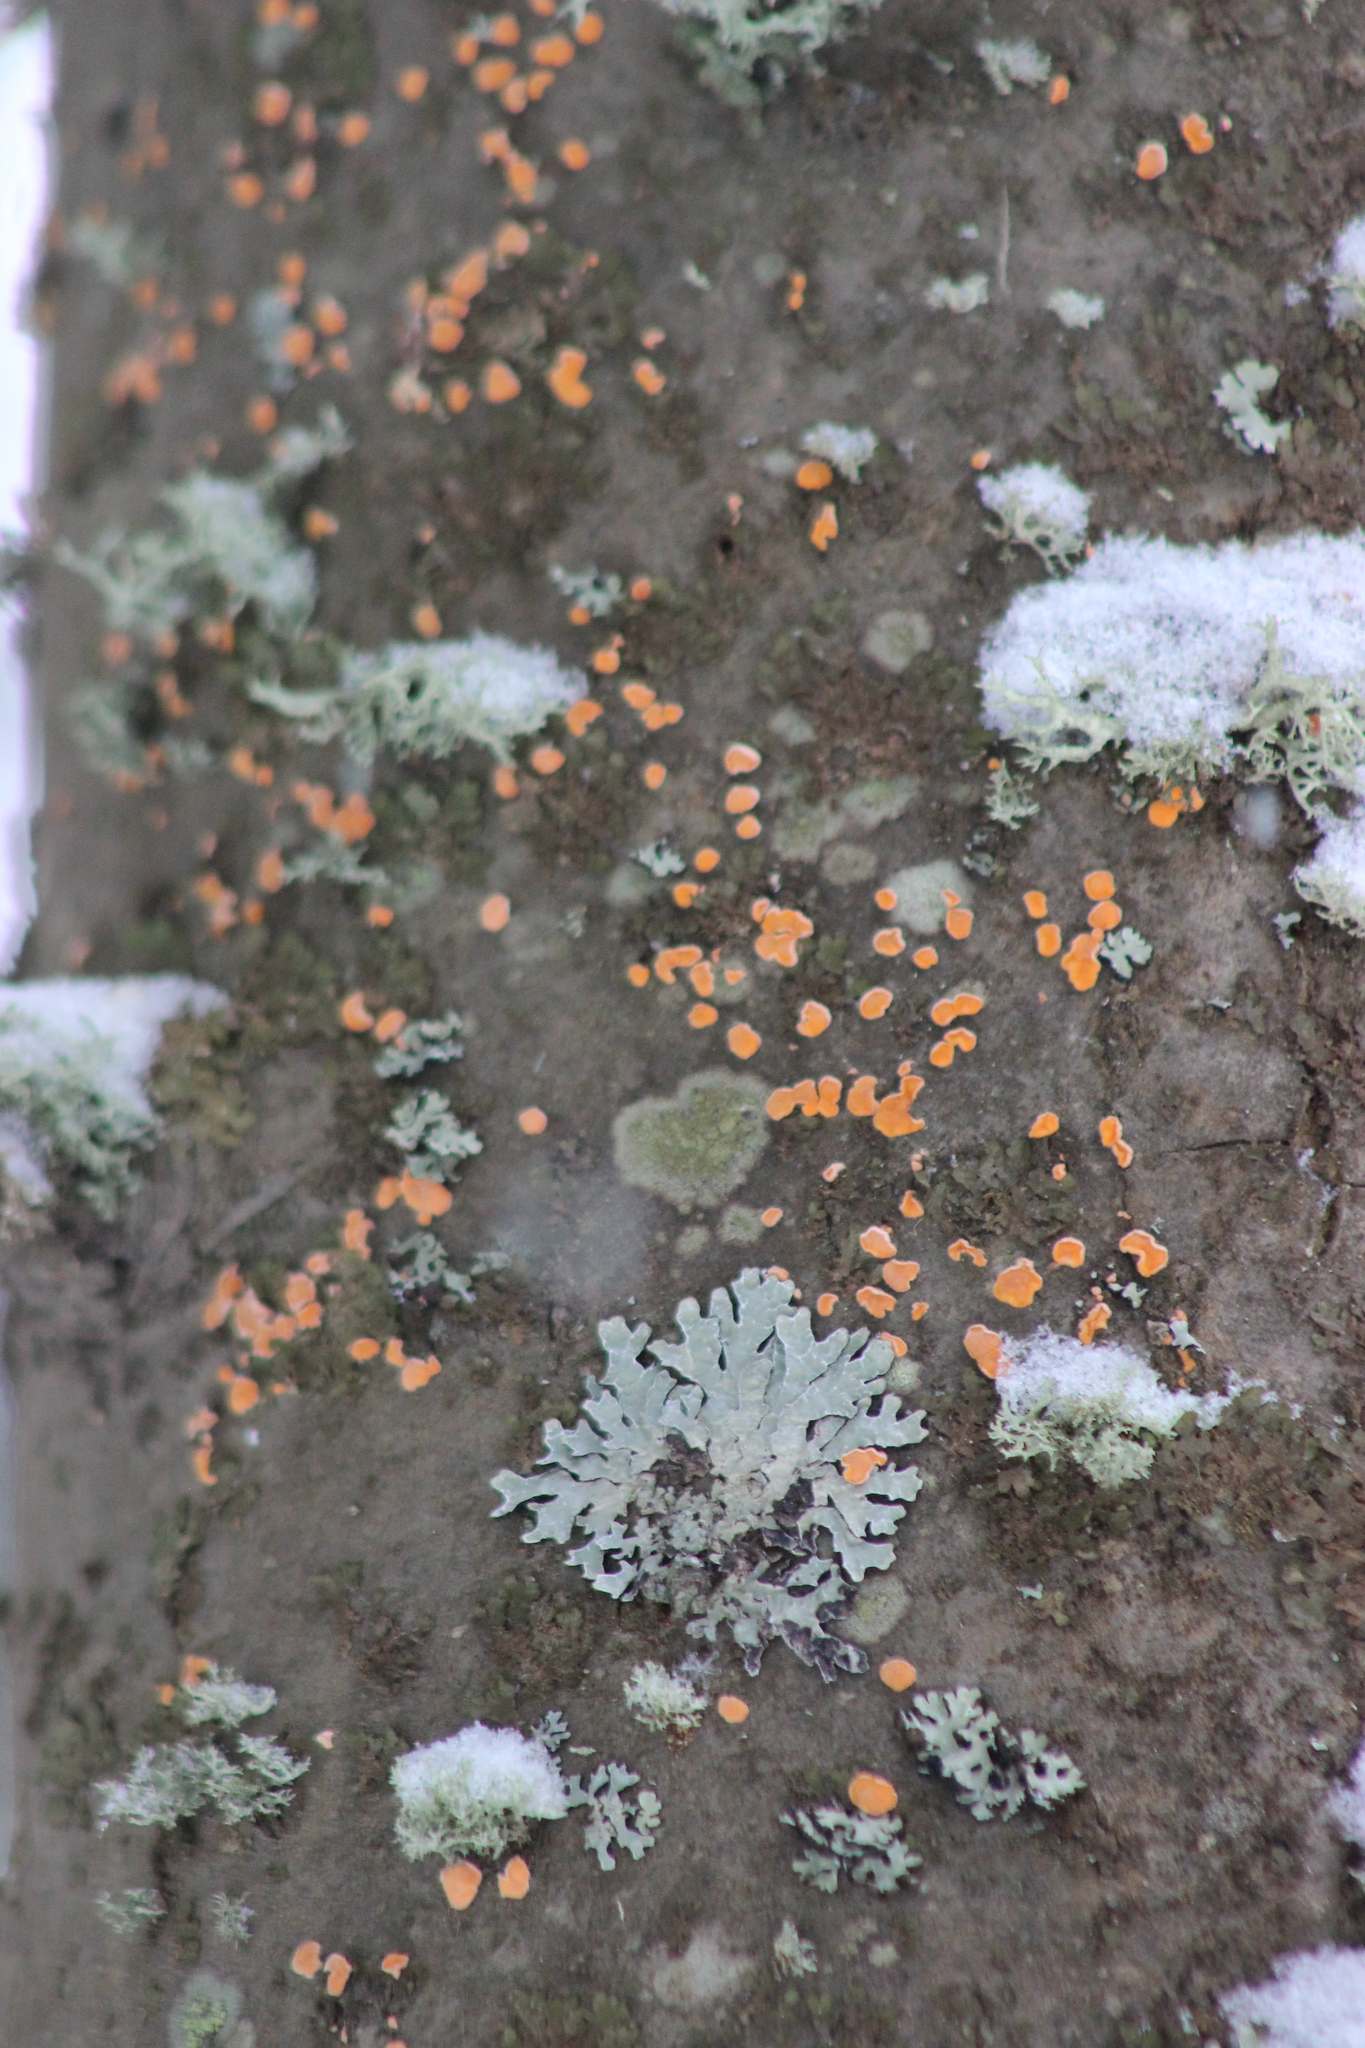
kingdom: Fungi
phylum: Basidiomycota
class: Agaricomycetes
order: Russulales
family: Stereaceae
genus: Aleurodiscus
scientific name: Aleurodiscus amorphus
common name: Orange discus
